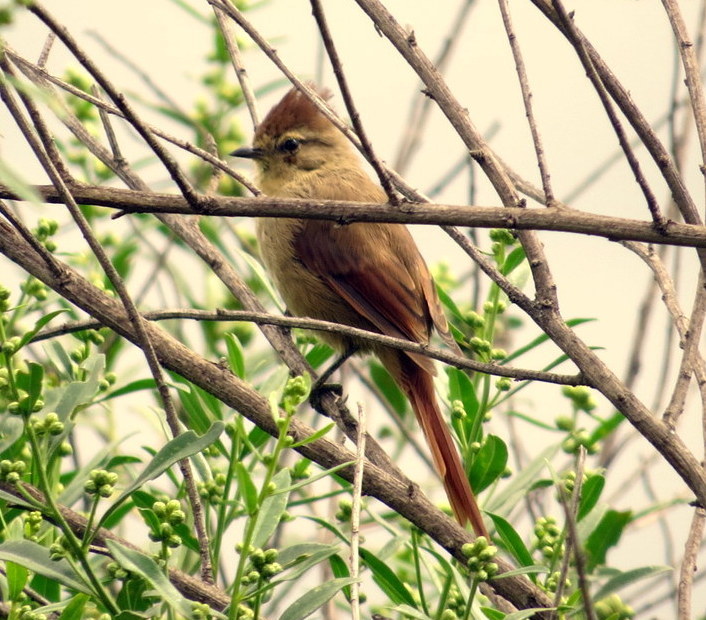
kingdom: Animalia
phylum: Chordata
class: Aves
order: Passeriformes
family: Furnariidae
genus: Leptasthenura
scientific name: Leptasthenura fuliginiceps
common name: Brown-capped tit-spinetail
